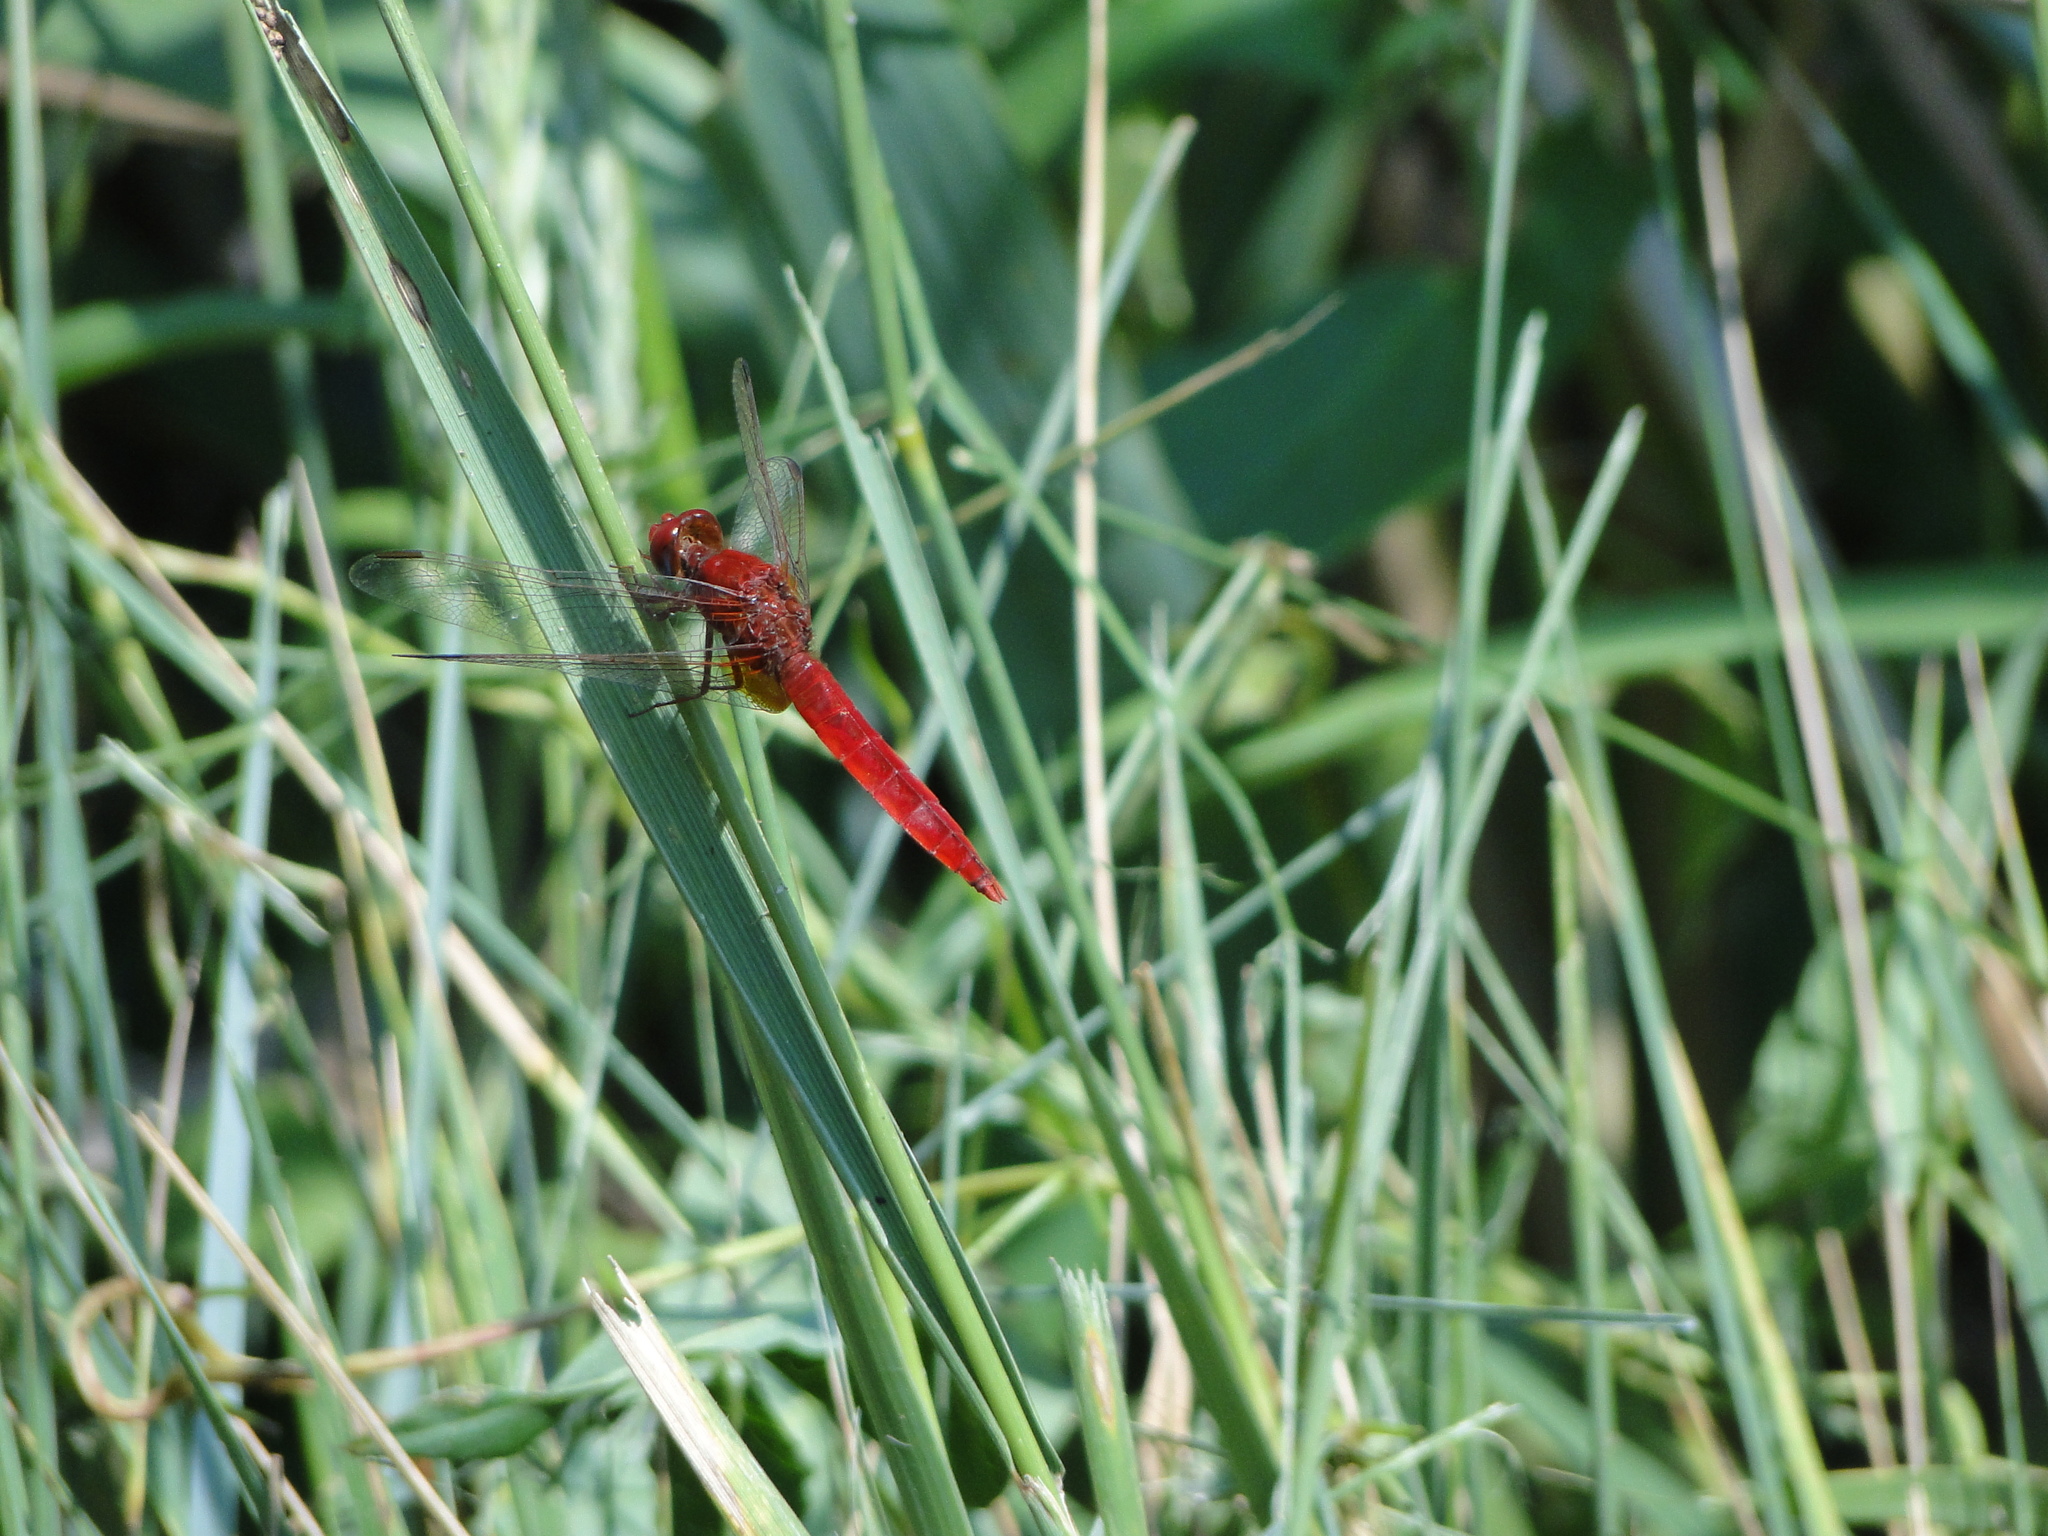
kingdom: Animalia
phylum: Arthropoda
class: Insecta
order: Odonata
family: Libellulidae
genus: Crocothemis
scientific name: Crocothemis erythraea
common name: Scarlet dragonfly
